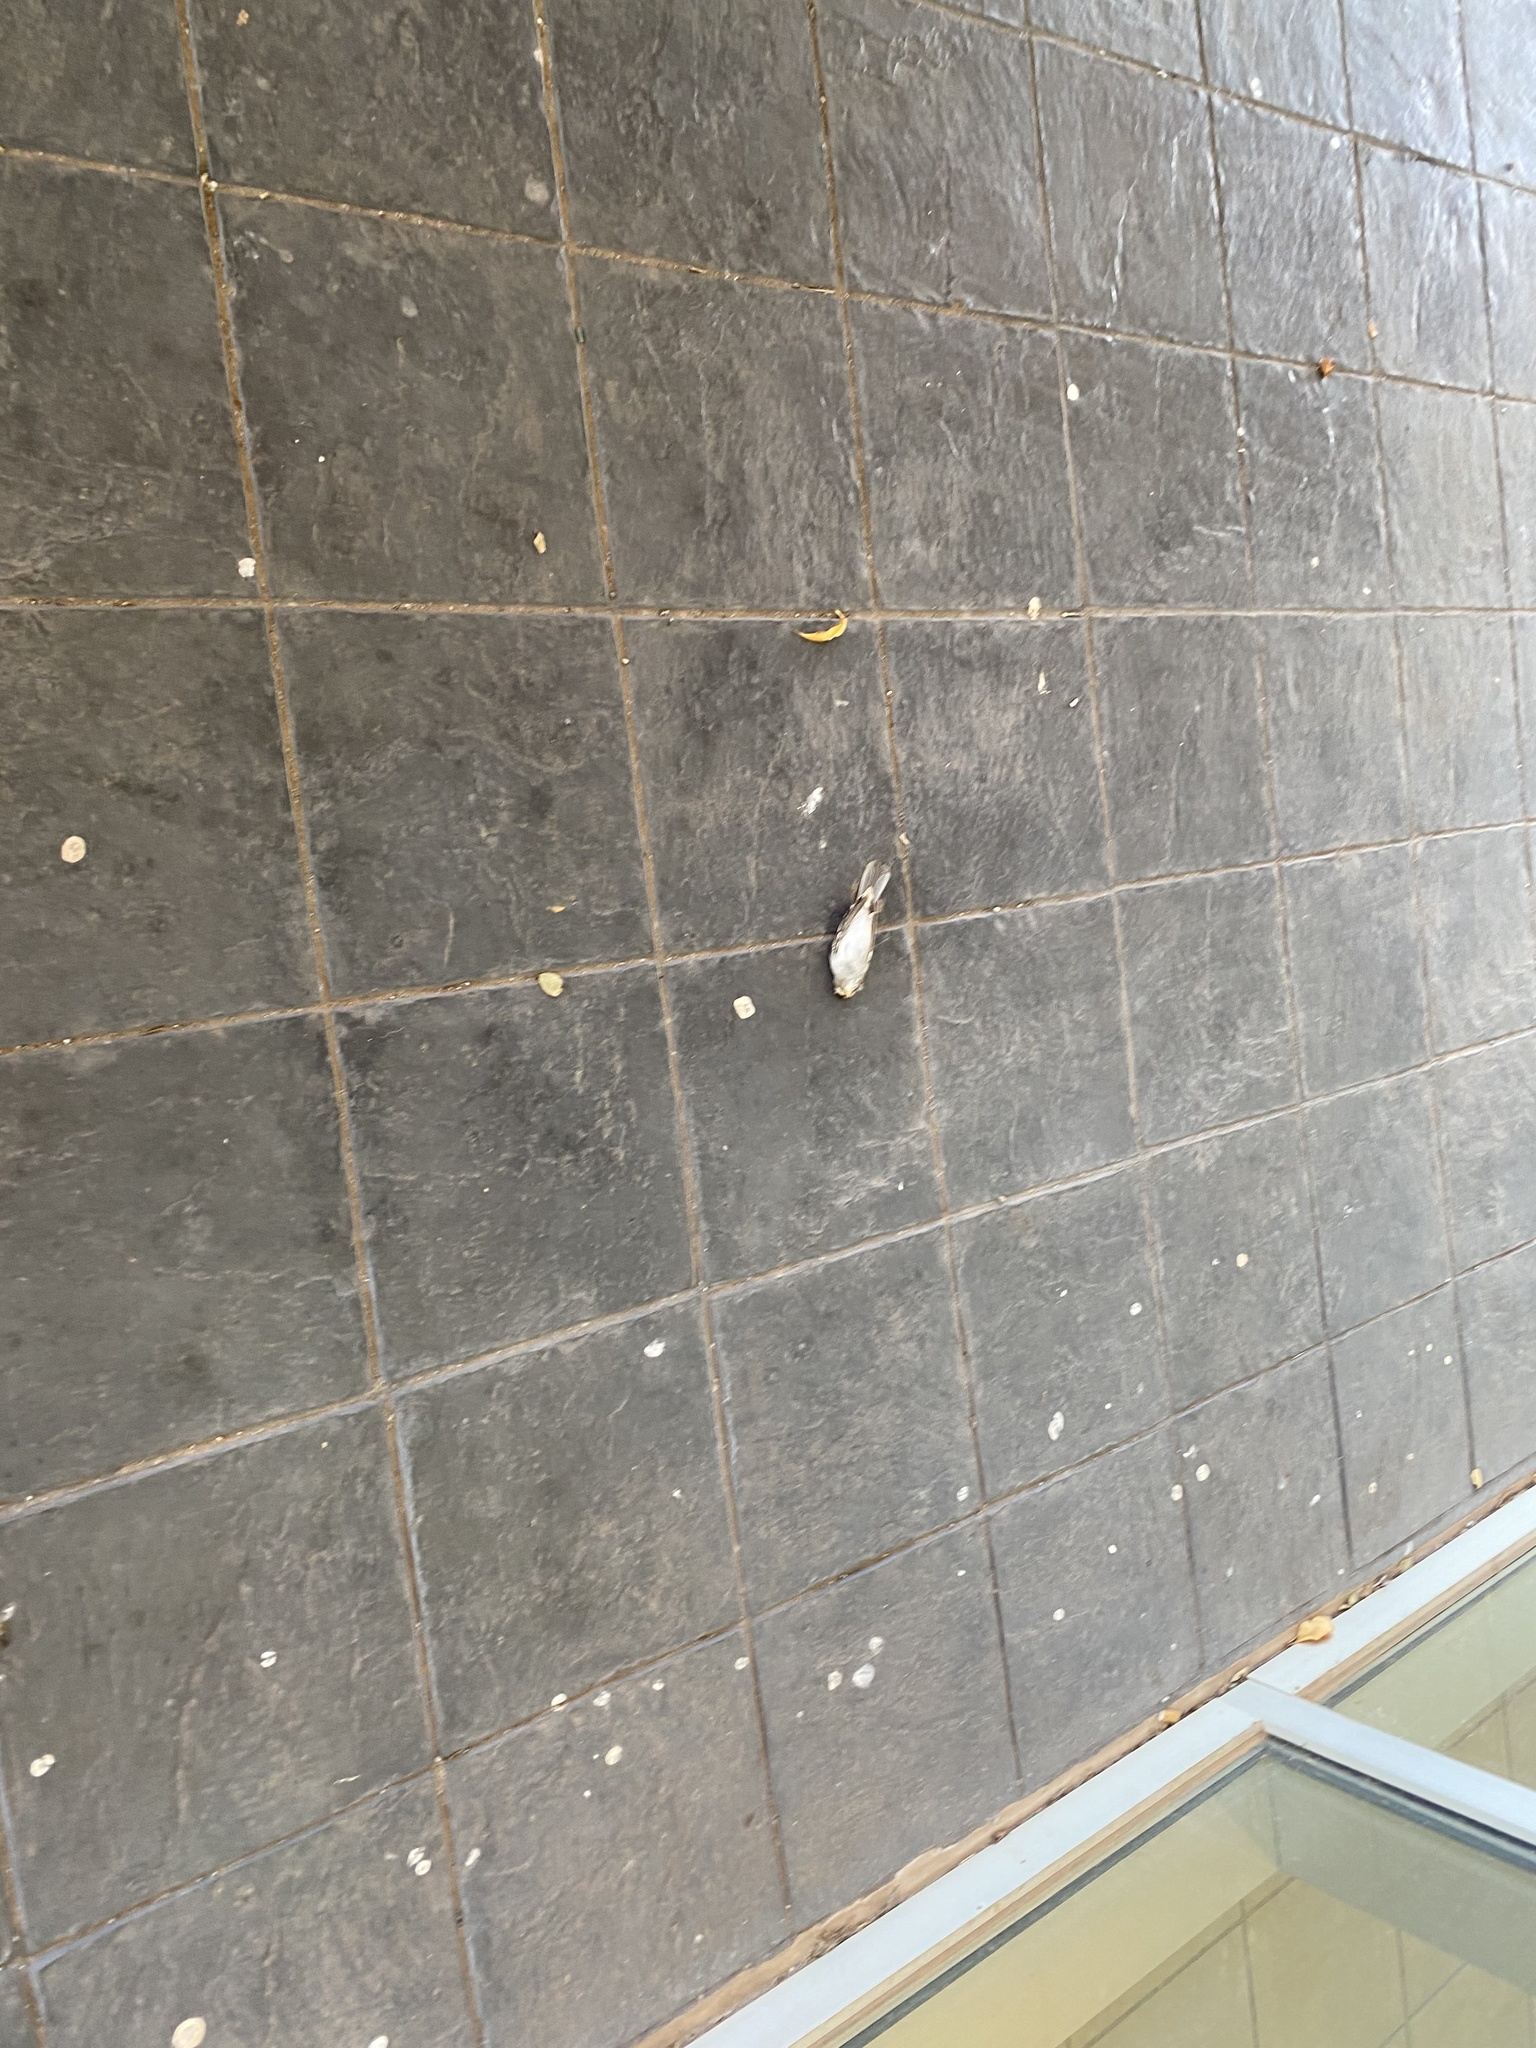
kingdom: Animalia
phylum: Chordata
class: Aves
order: Passeriformes
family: Passerellidae
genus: Zonotrichia
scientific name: Zonotrichia leucophrys
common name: White-crowned sparrow
